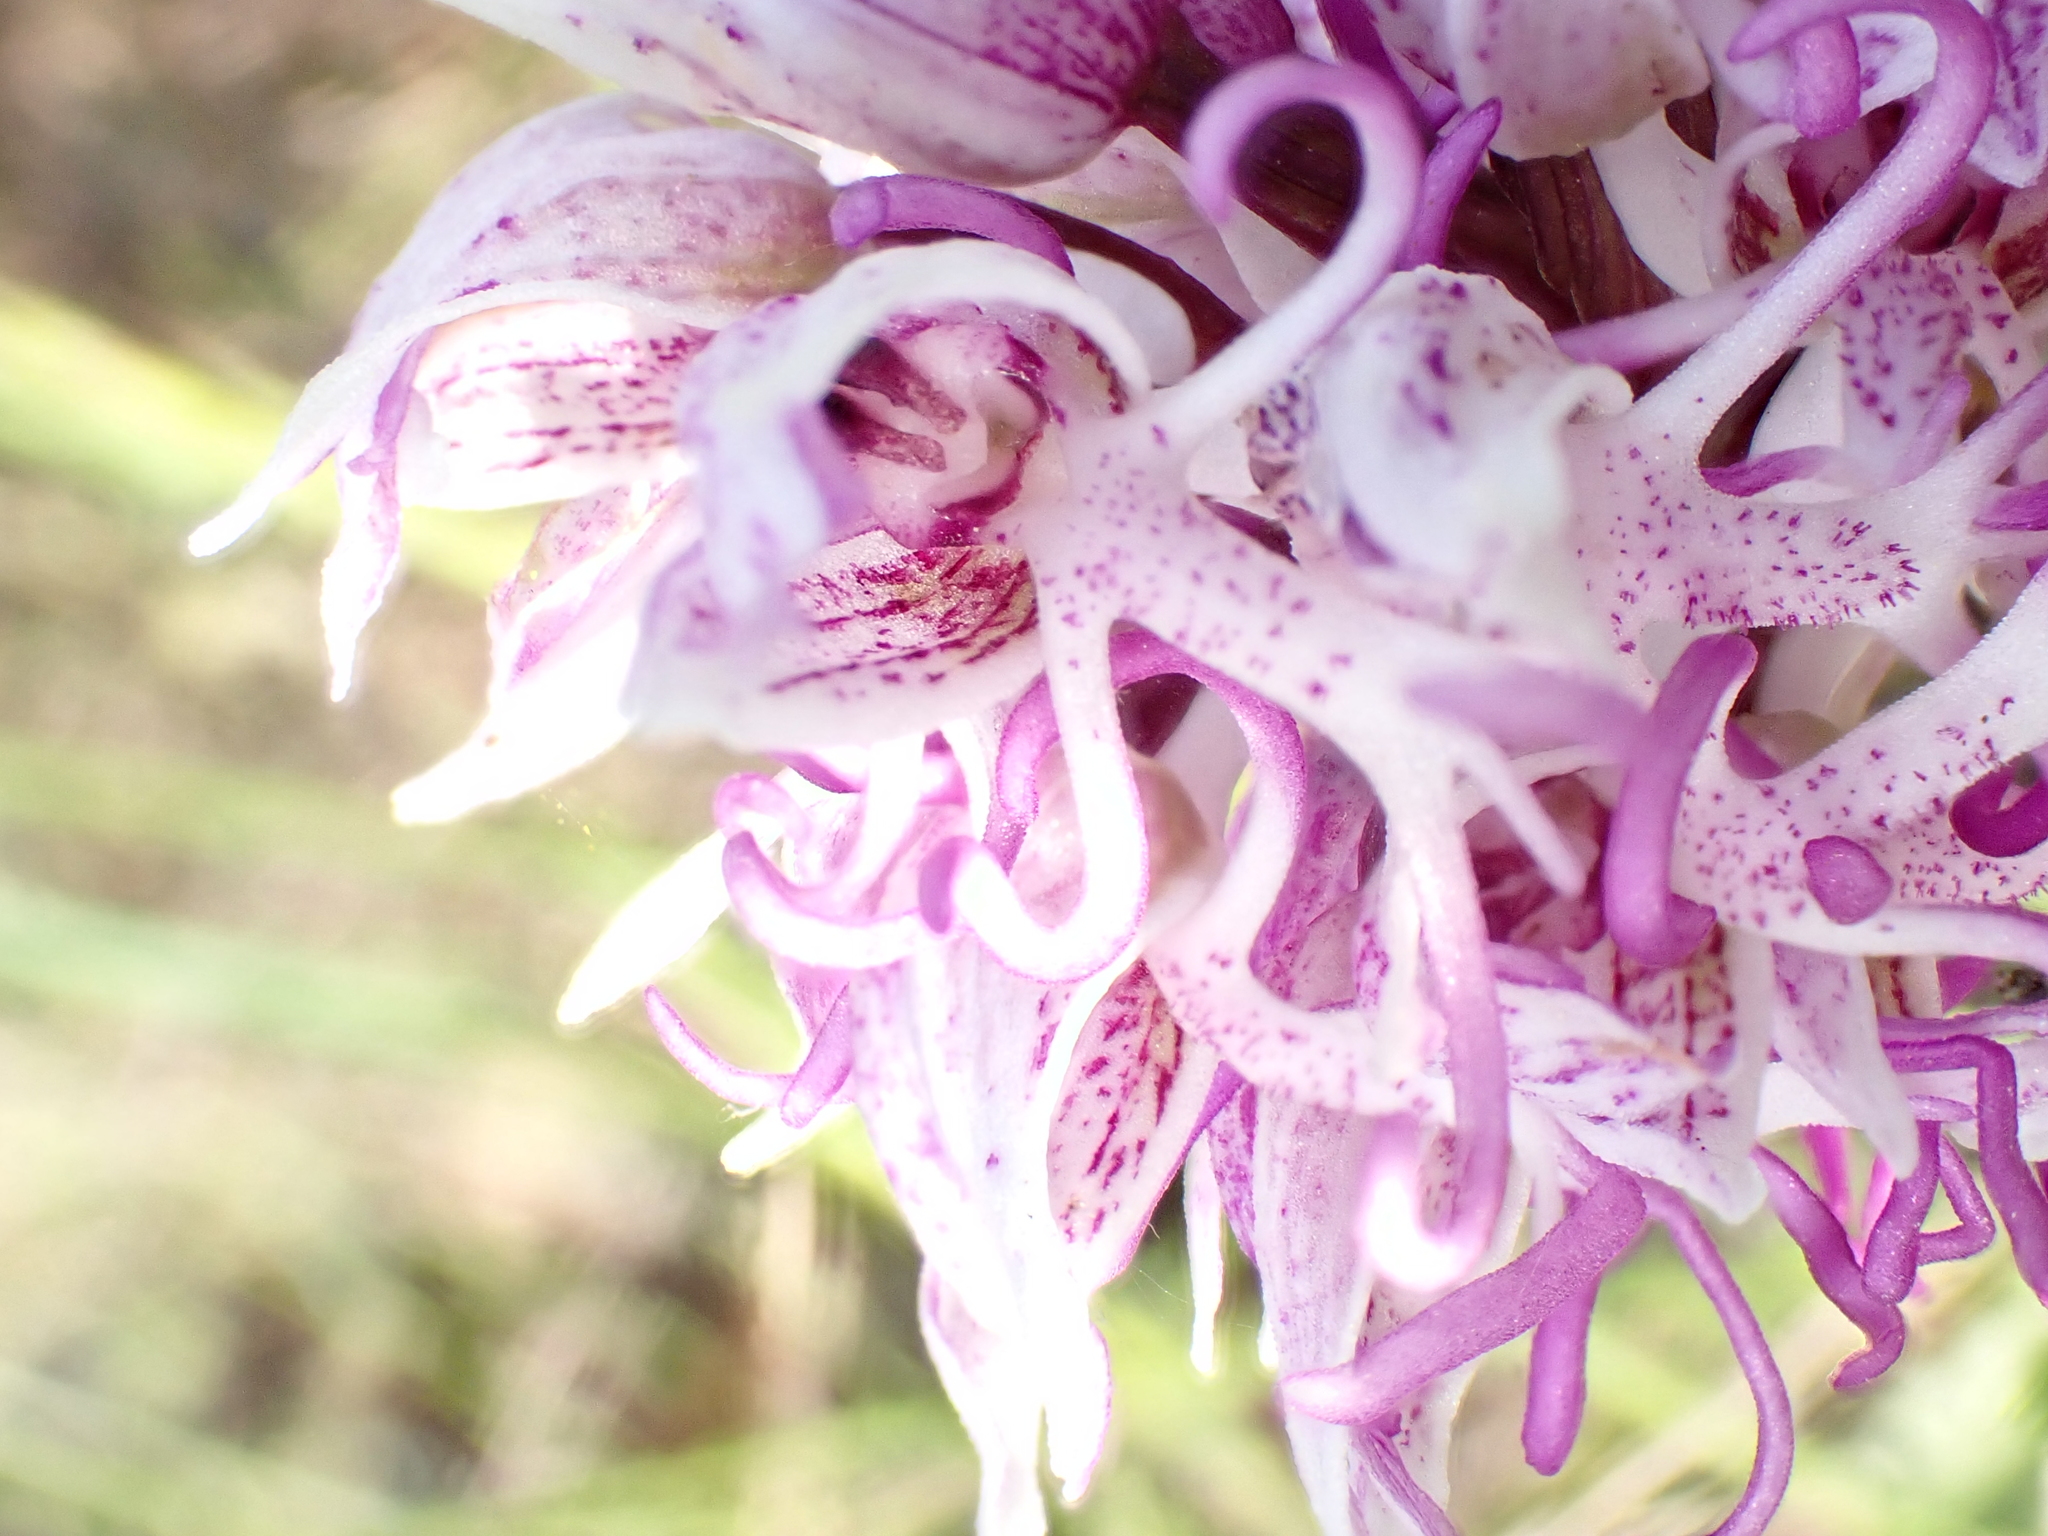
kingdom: Plantae
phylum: Tracheophyta
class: Liliopsida
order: Asparagales
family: Orchidaceae
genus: Orchis
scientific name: Orchis simia
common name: Monkey orchid
